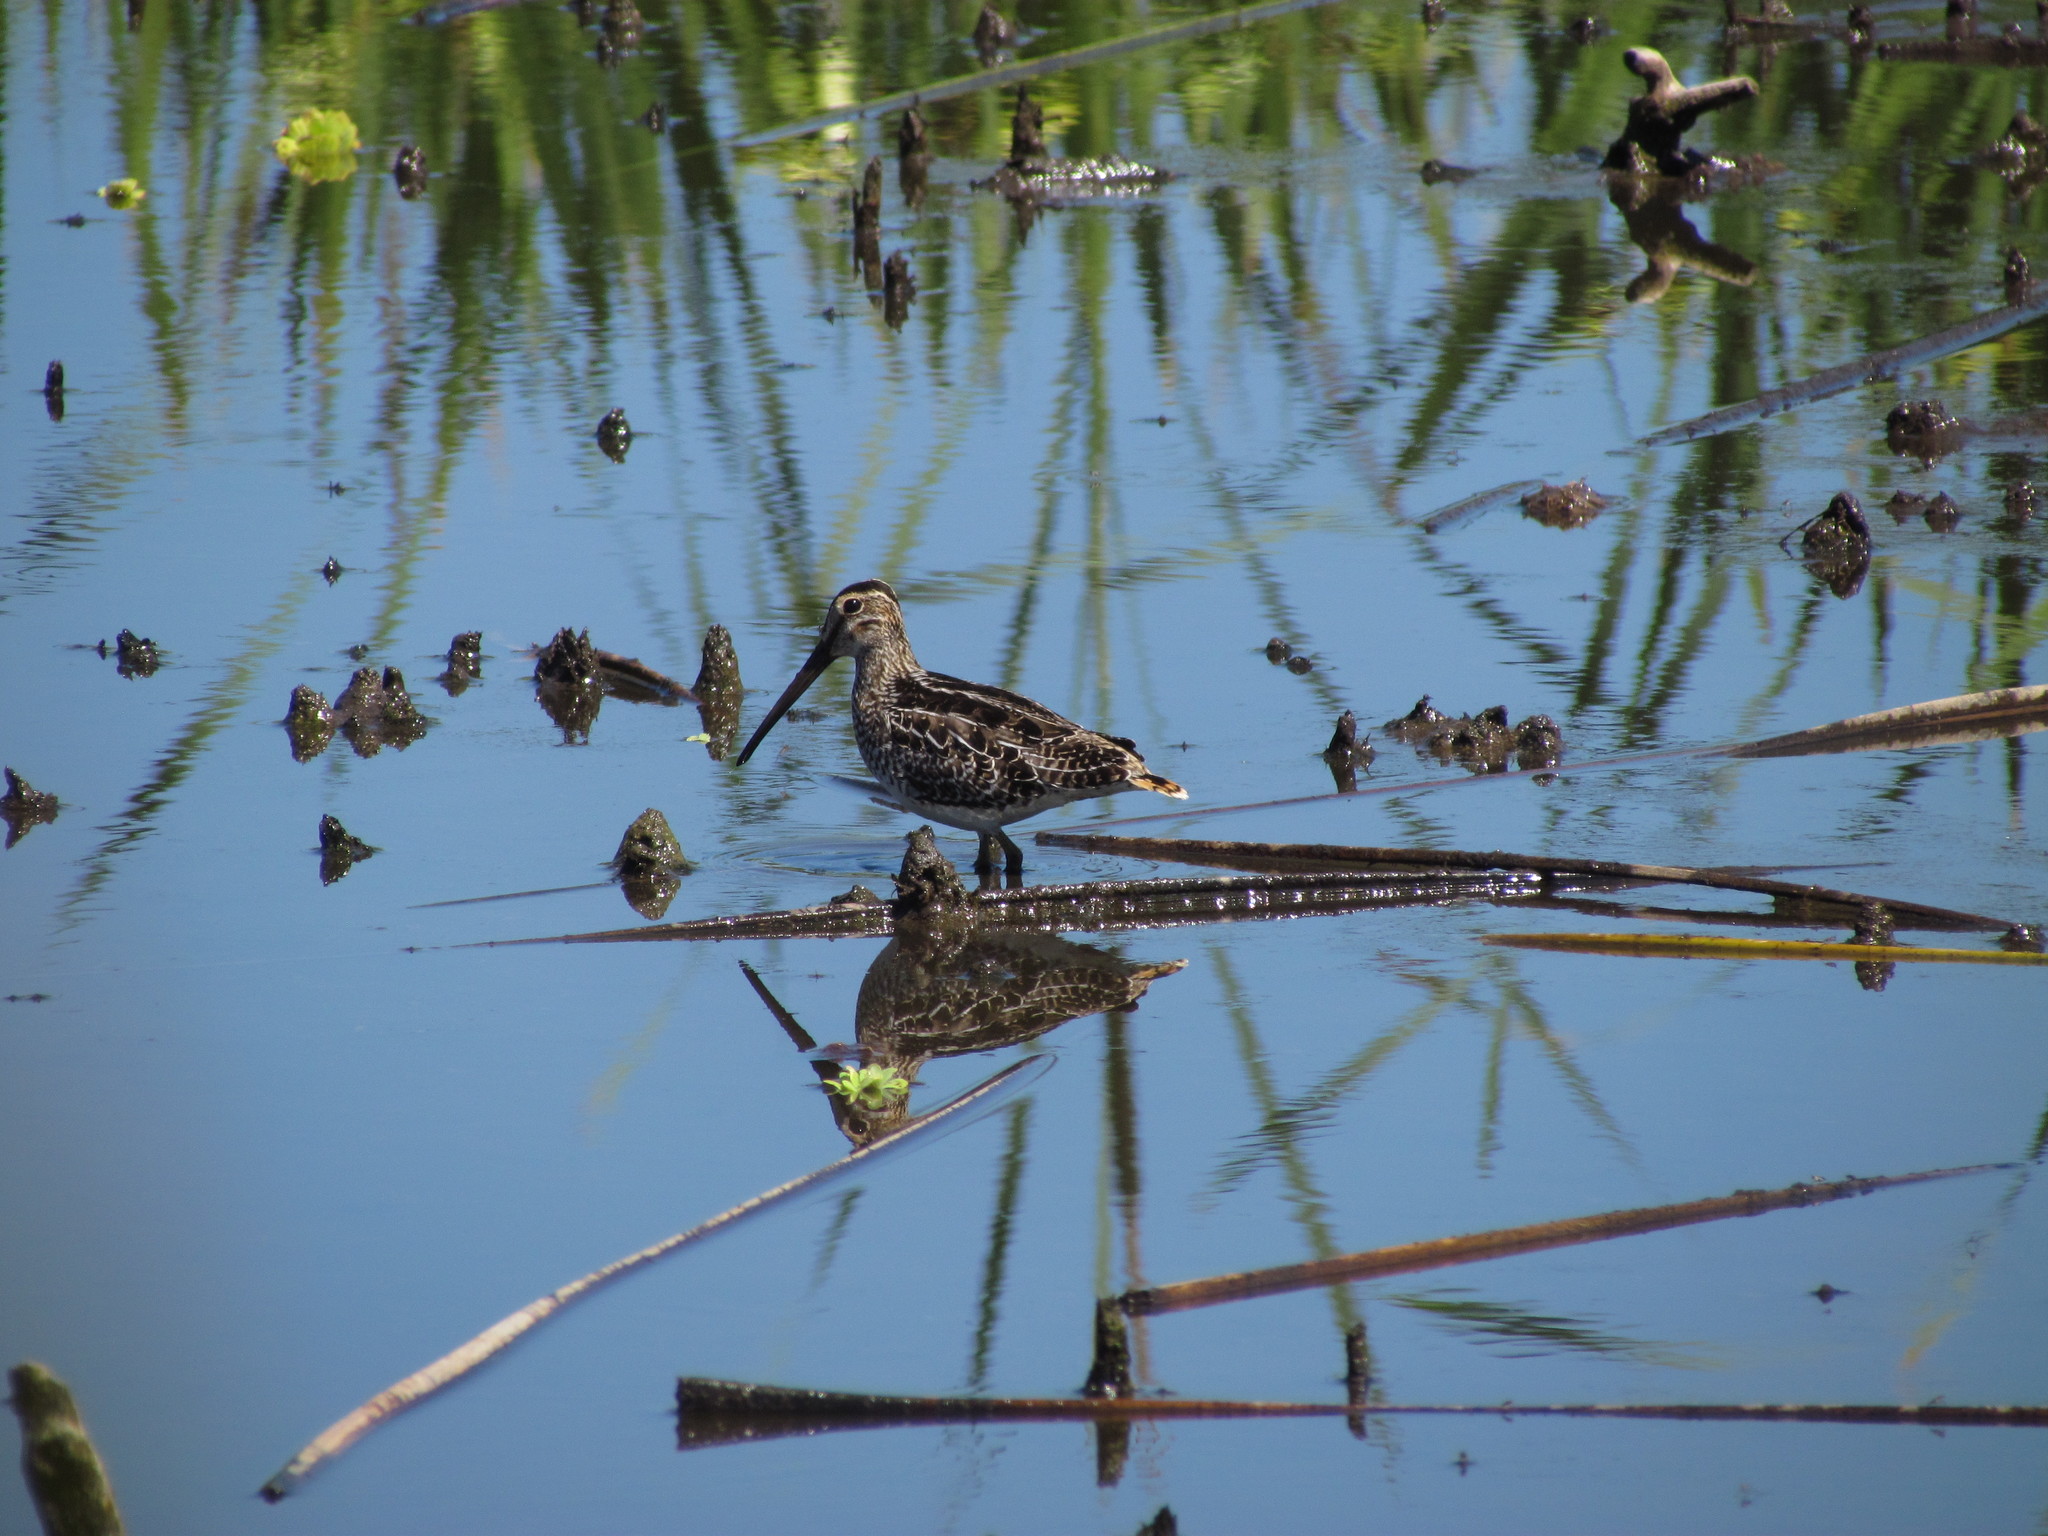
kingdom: Animalia
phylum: Chordata
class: Aves
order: Charadriiformes
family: Scolopacidae
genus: Gallinago
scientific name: Gallinago paraguaiae
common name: South american snipe
